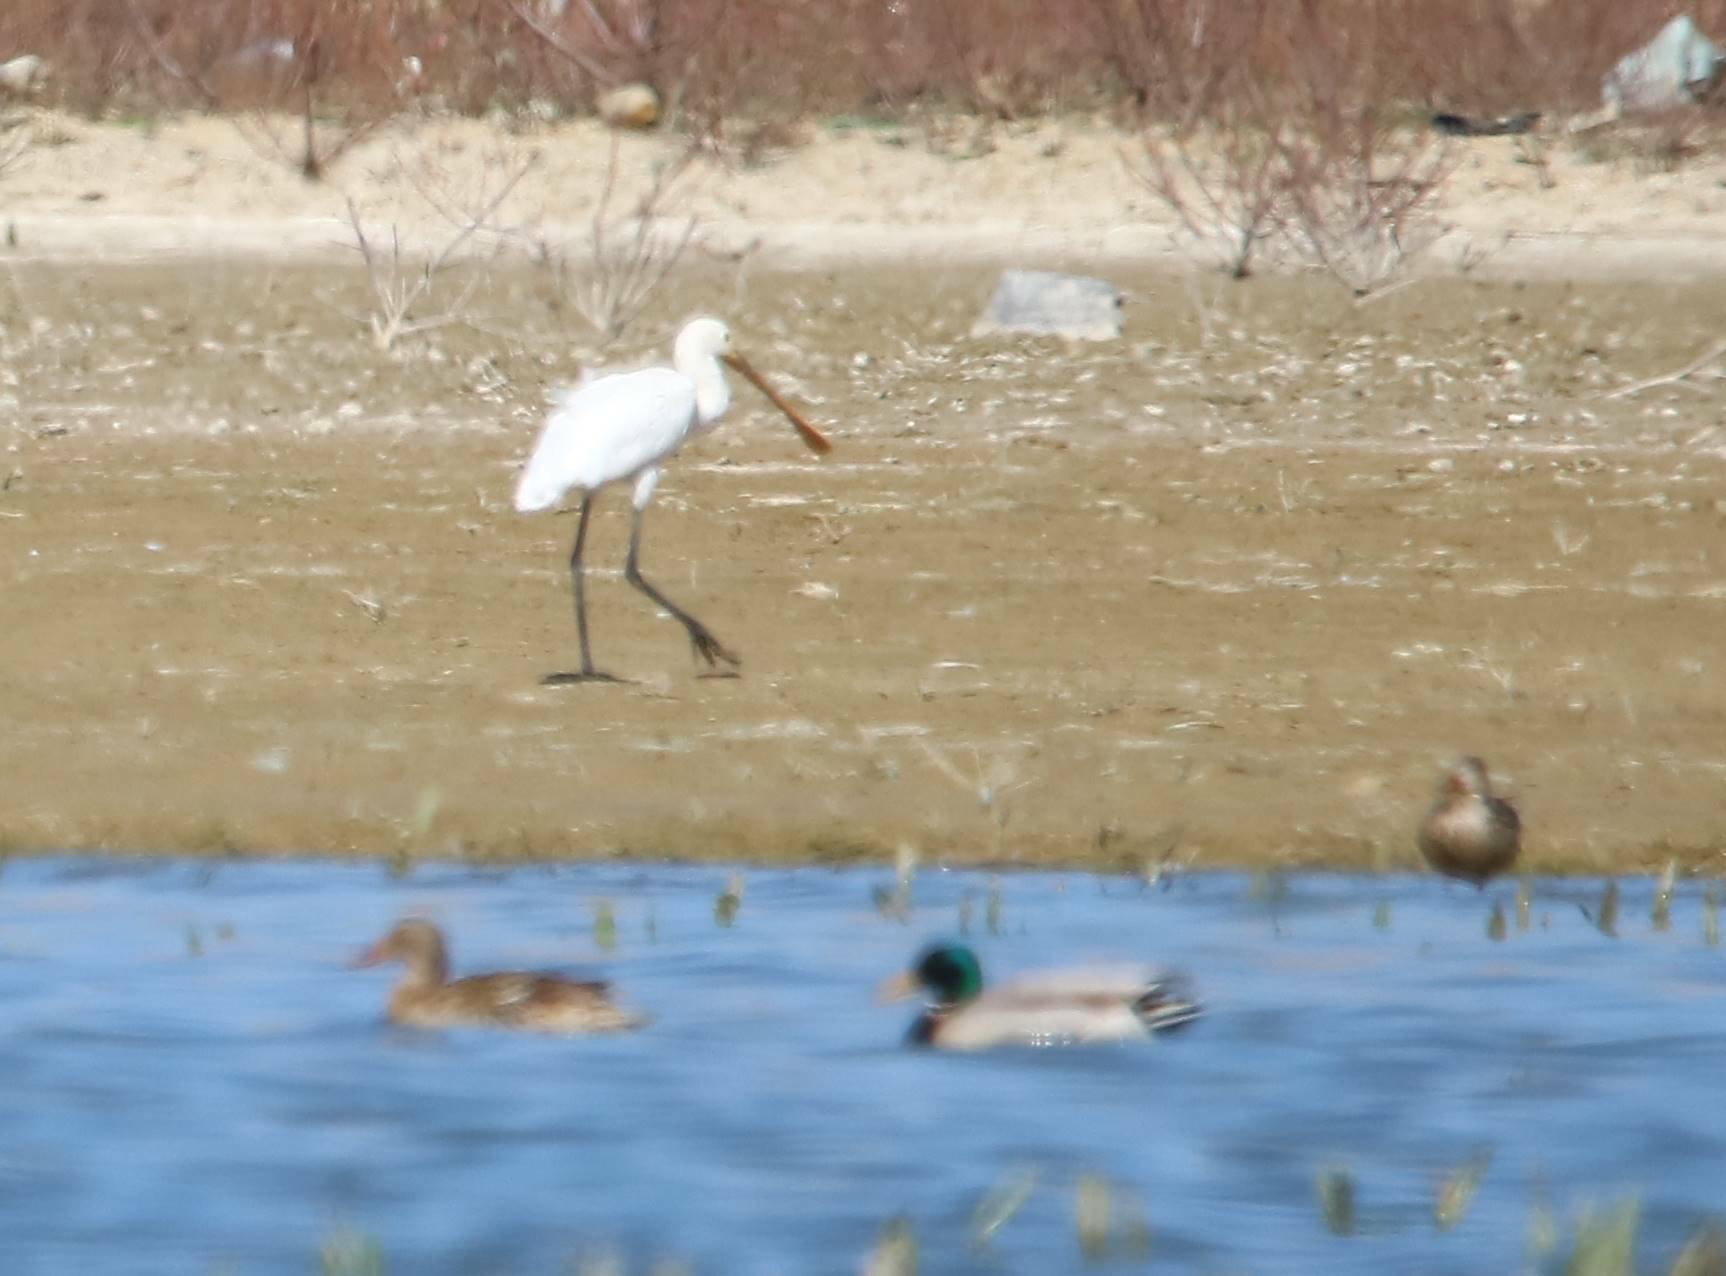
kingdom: Animalia
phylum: Chordata
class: Aves
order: Pelecaniformes
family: Threskiornithidae
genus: Platalea
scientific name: Platalea leucorodia
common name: Eurasian spoonbill
